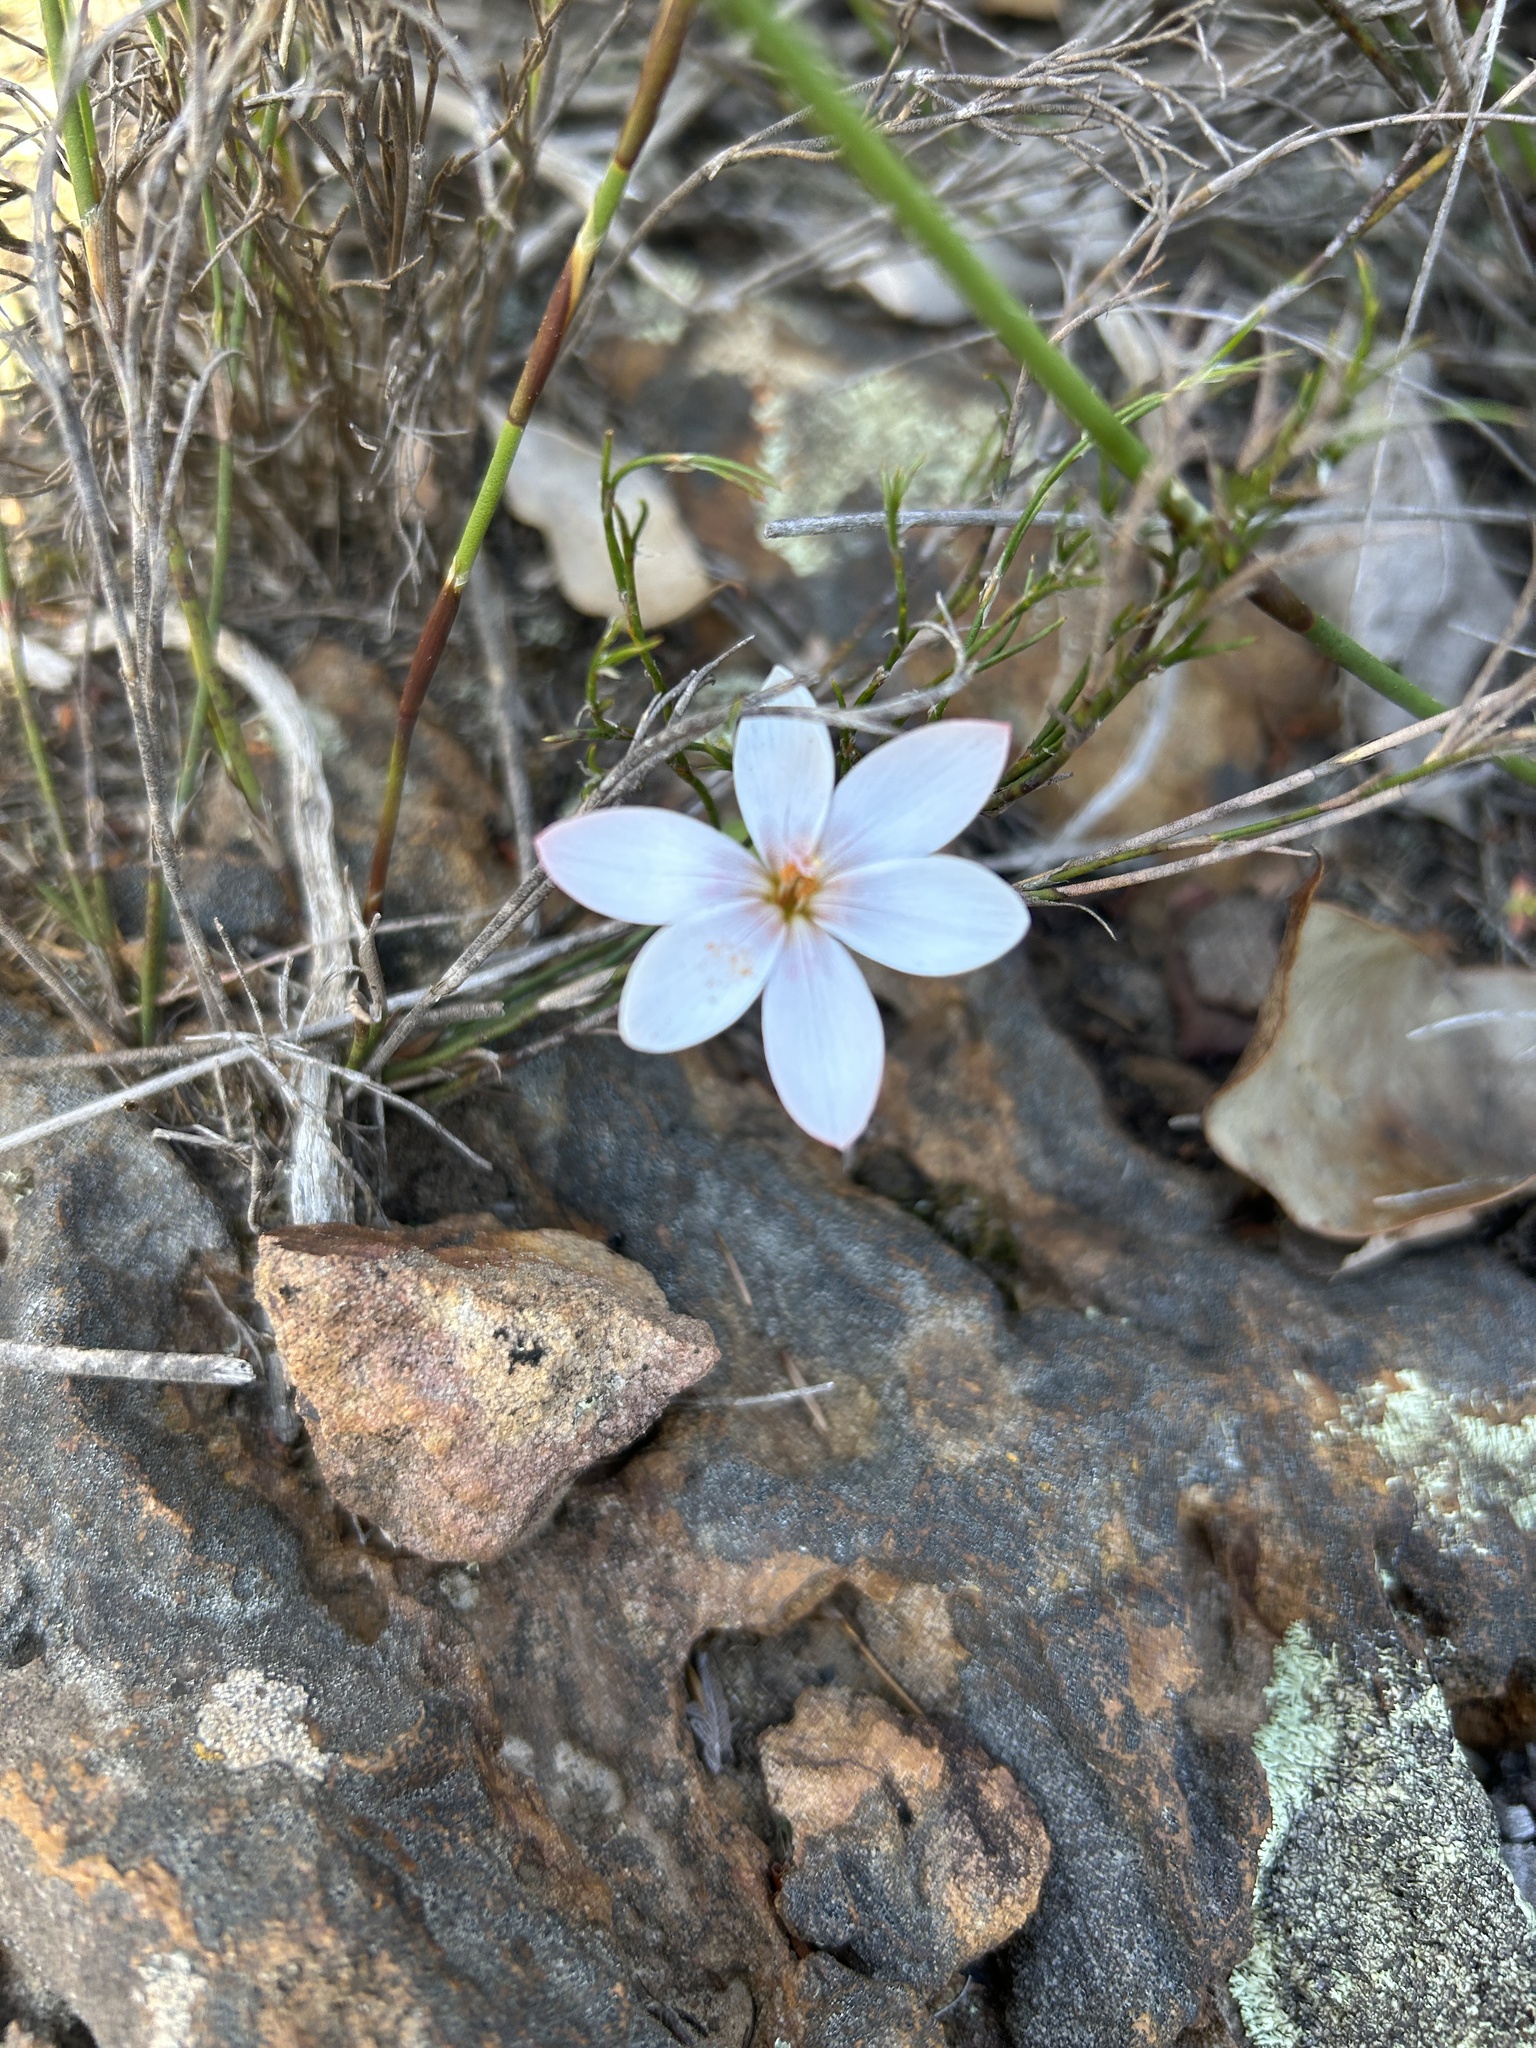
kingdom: Plantae
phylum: Tracheophyta
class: Liliopsida
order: Asparagales
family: Iridaceae
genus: Geissorhiza
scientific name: Geissorhiza ovata
